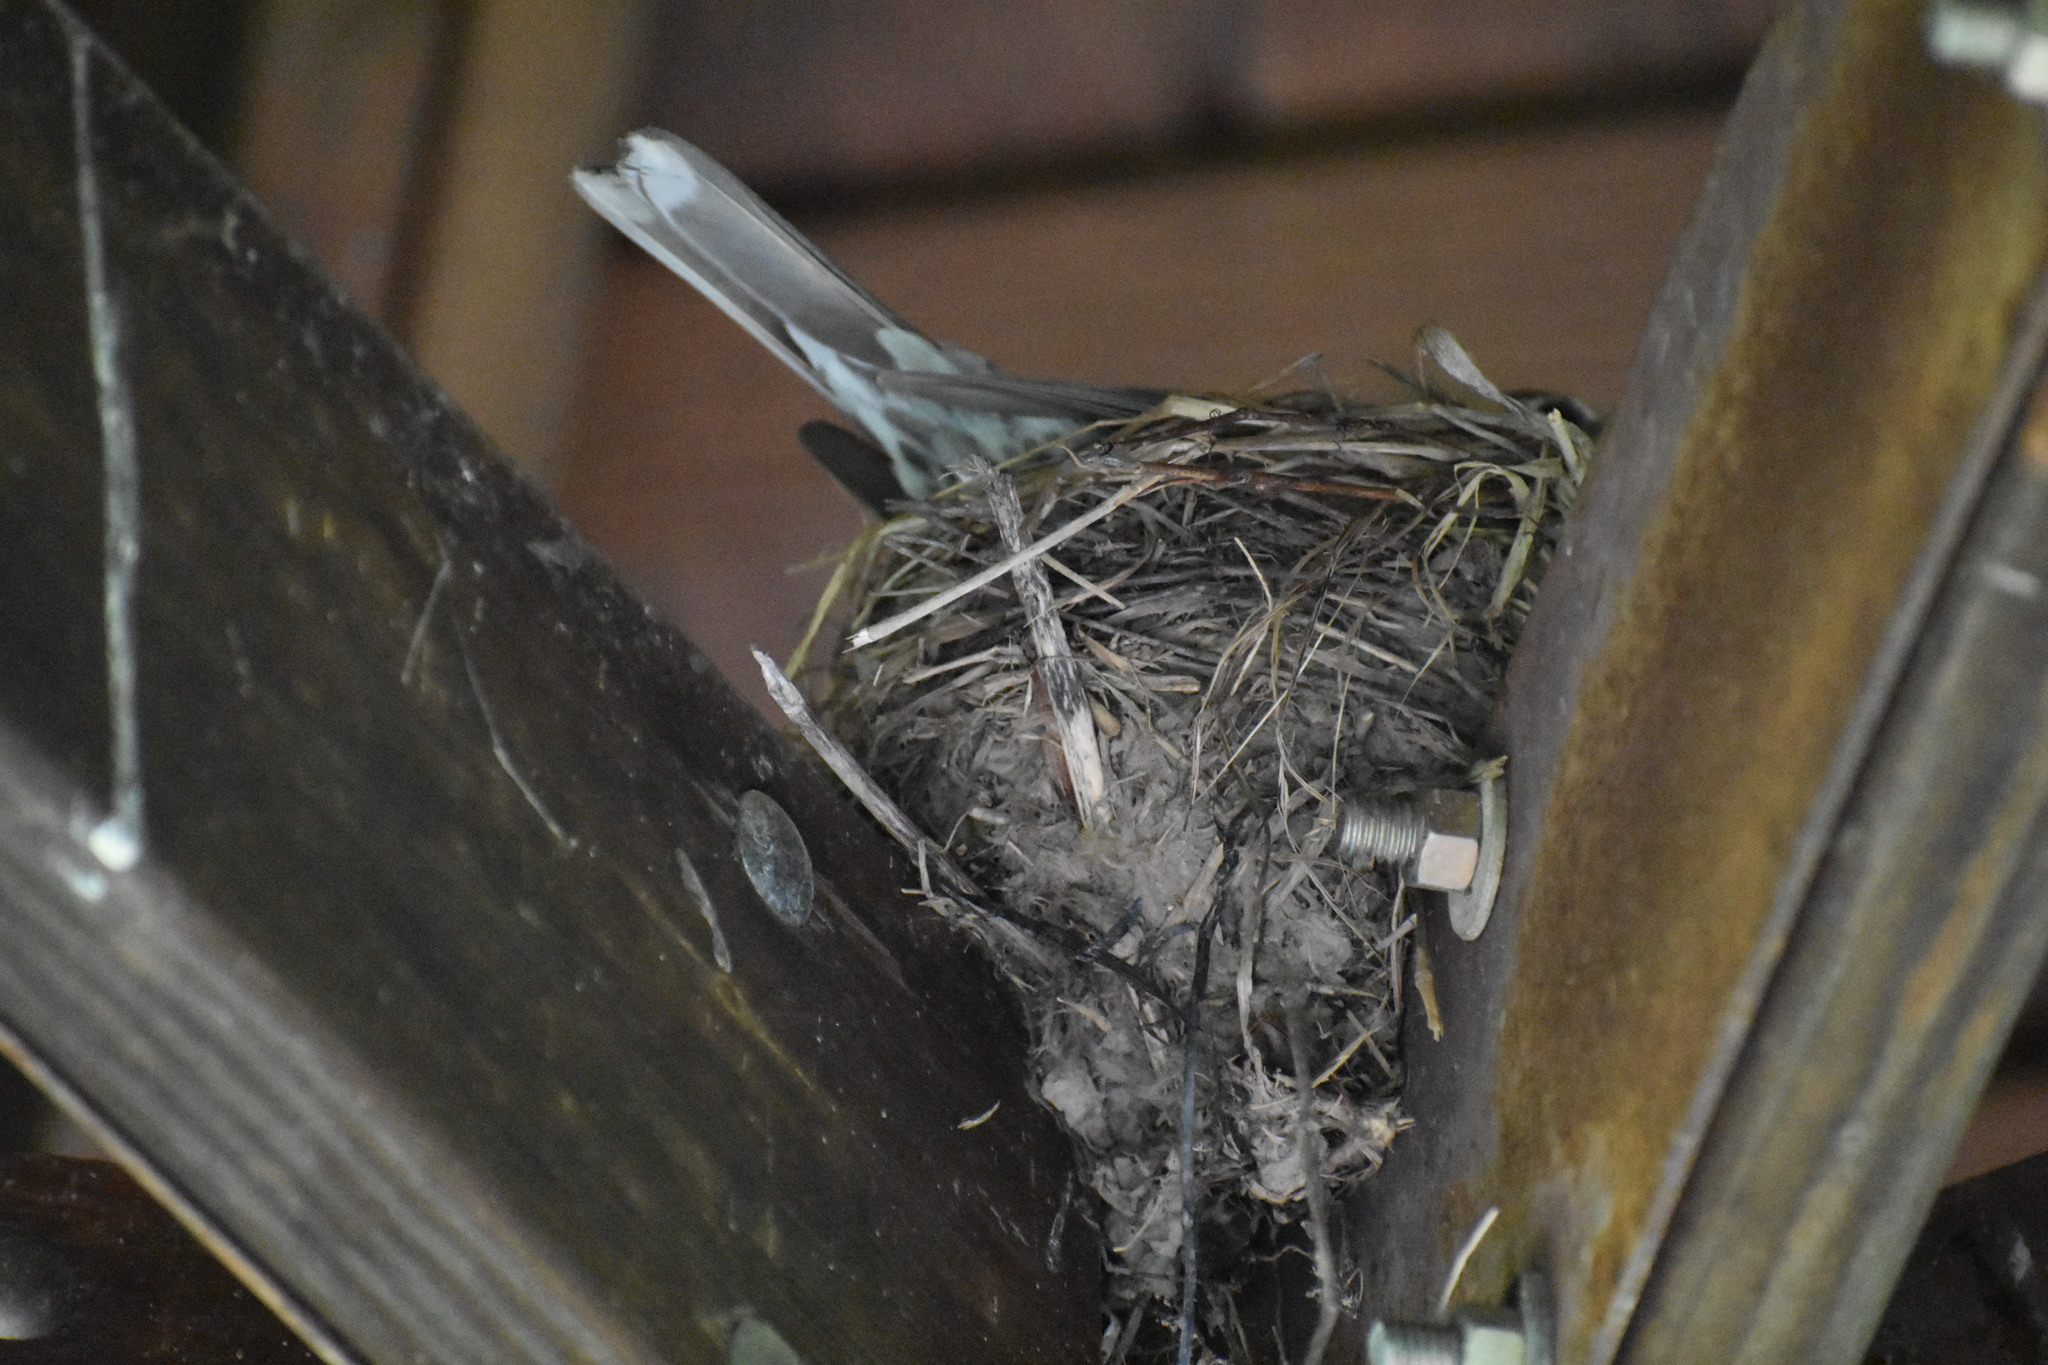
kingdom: Animalia
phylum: Chordata
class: Aves
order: Passeriformes
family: Turdidae
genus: Turdus
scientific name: Turdus migratorius
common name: American robin
